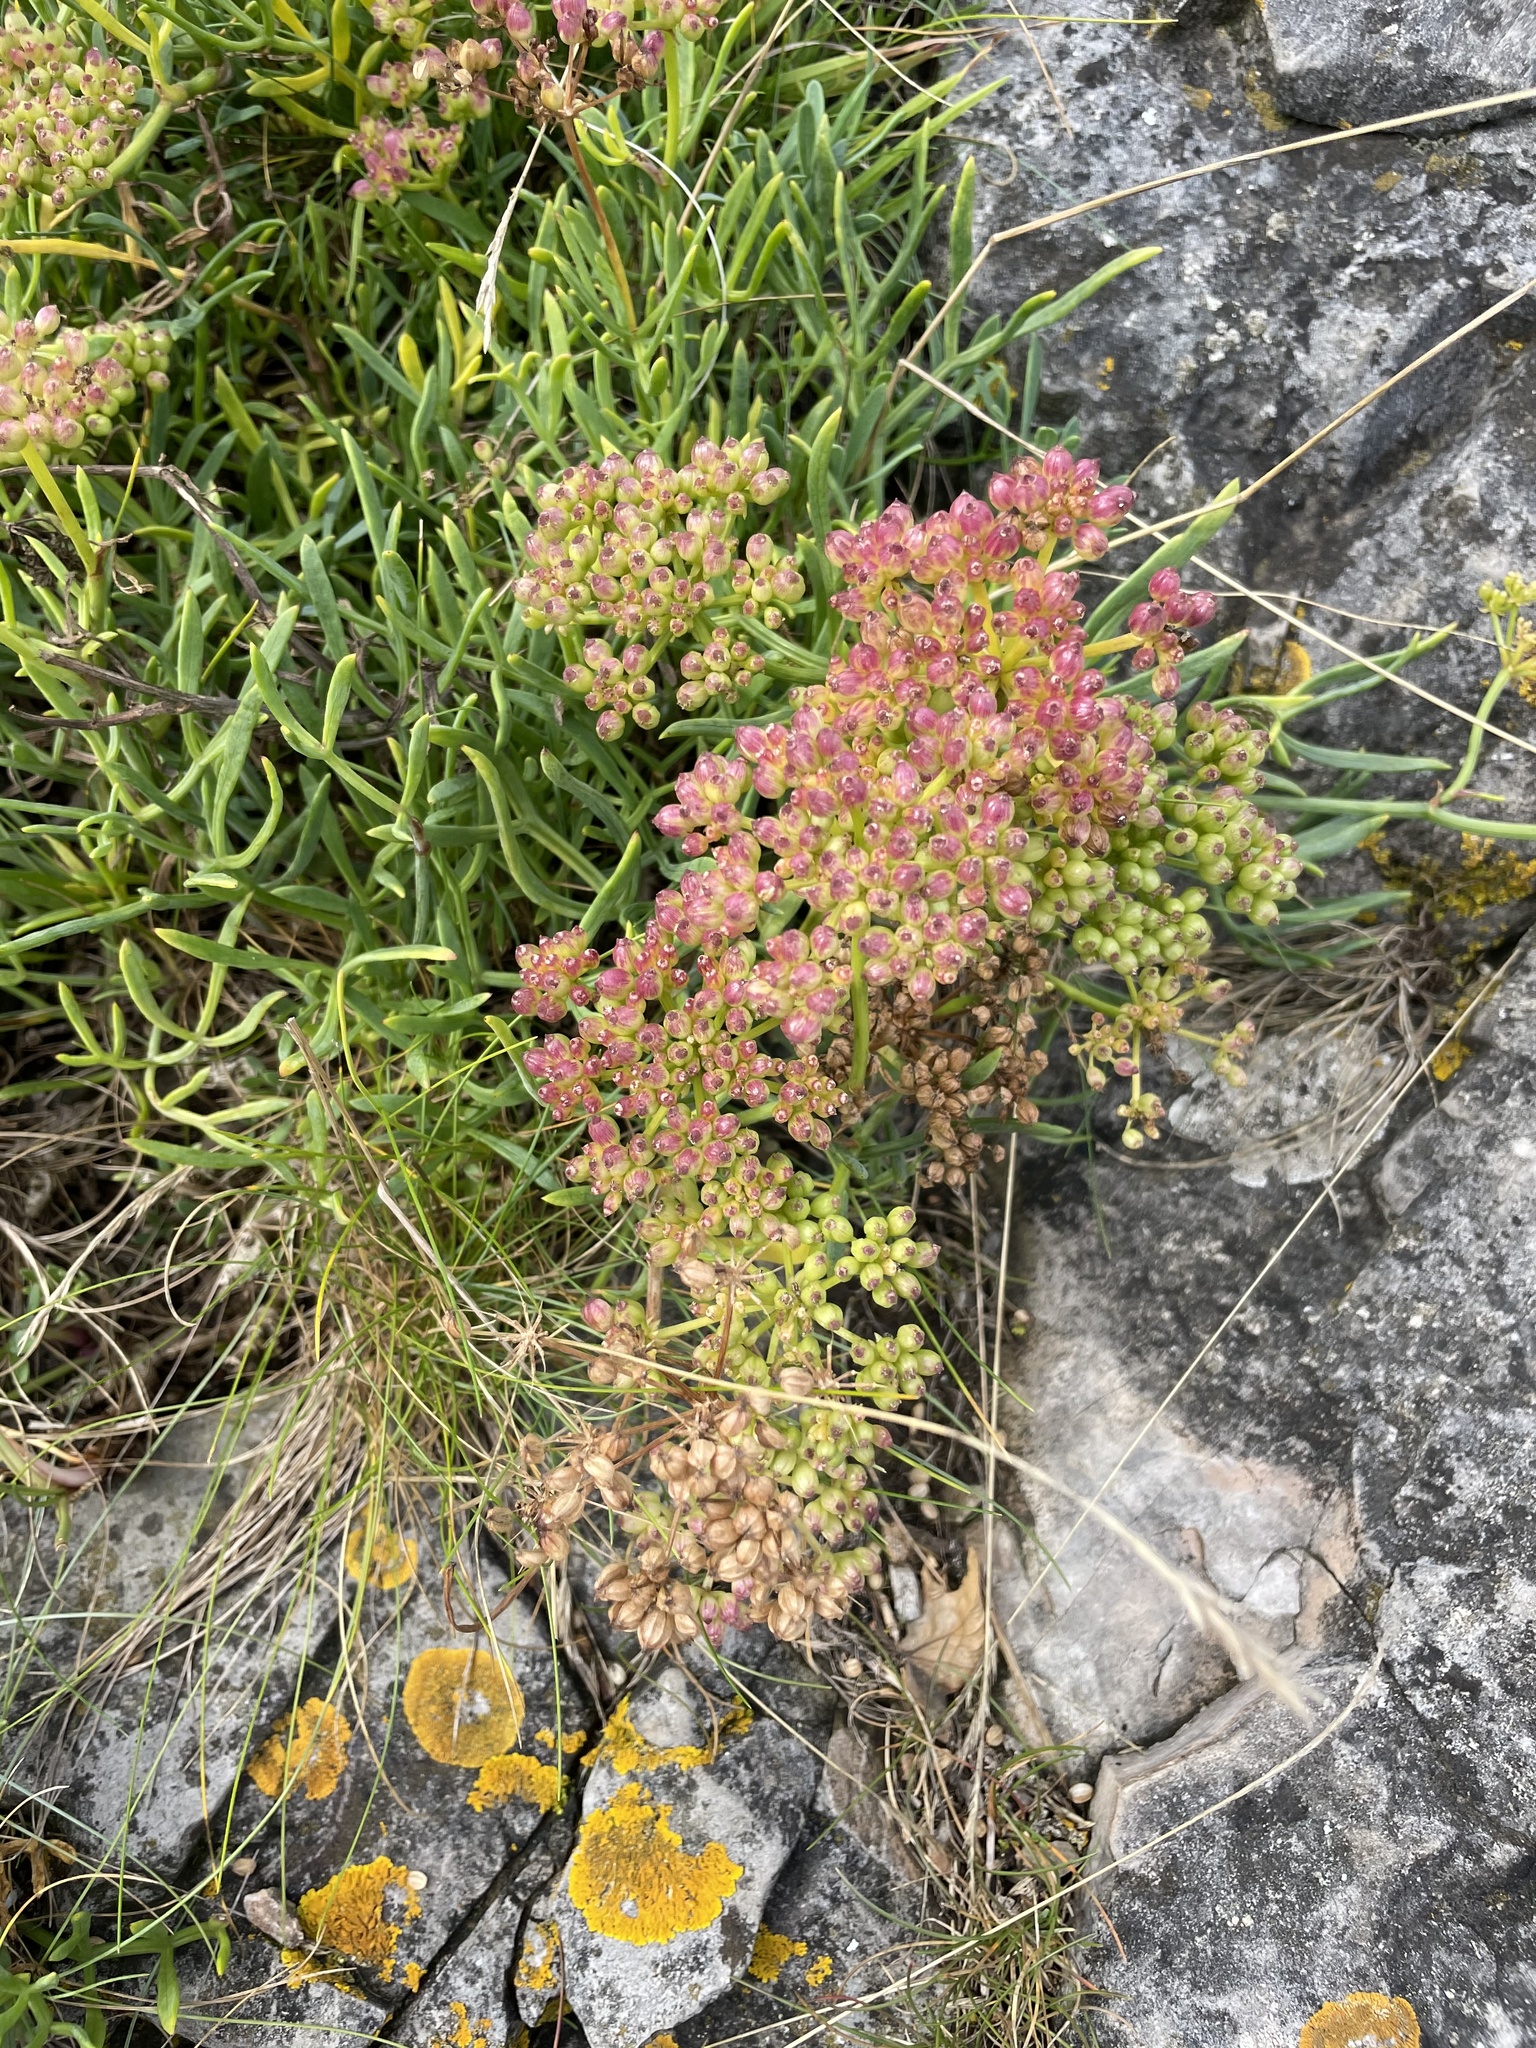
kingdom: Plantae
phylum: Tracheophyta
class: Magnoliopsida
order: Apiales
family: Apiaceae
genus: Crithmum
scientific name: Crithmum maritimum
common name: Rock samphire
